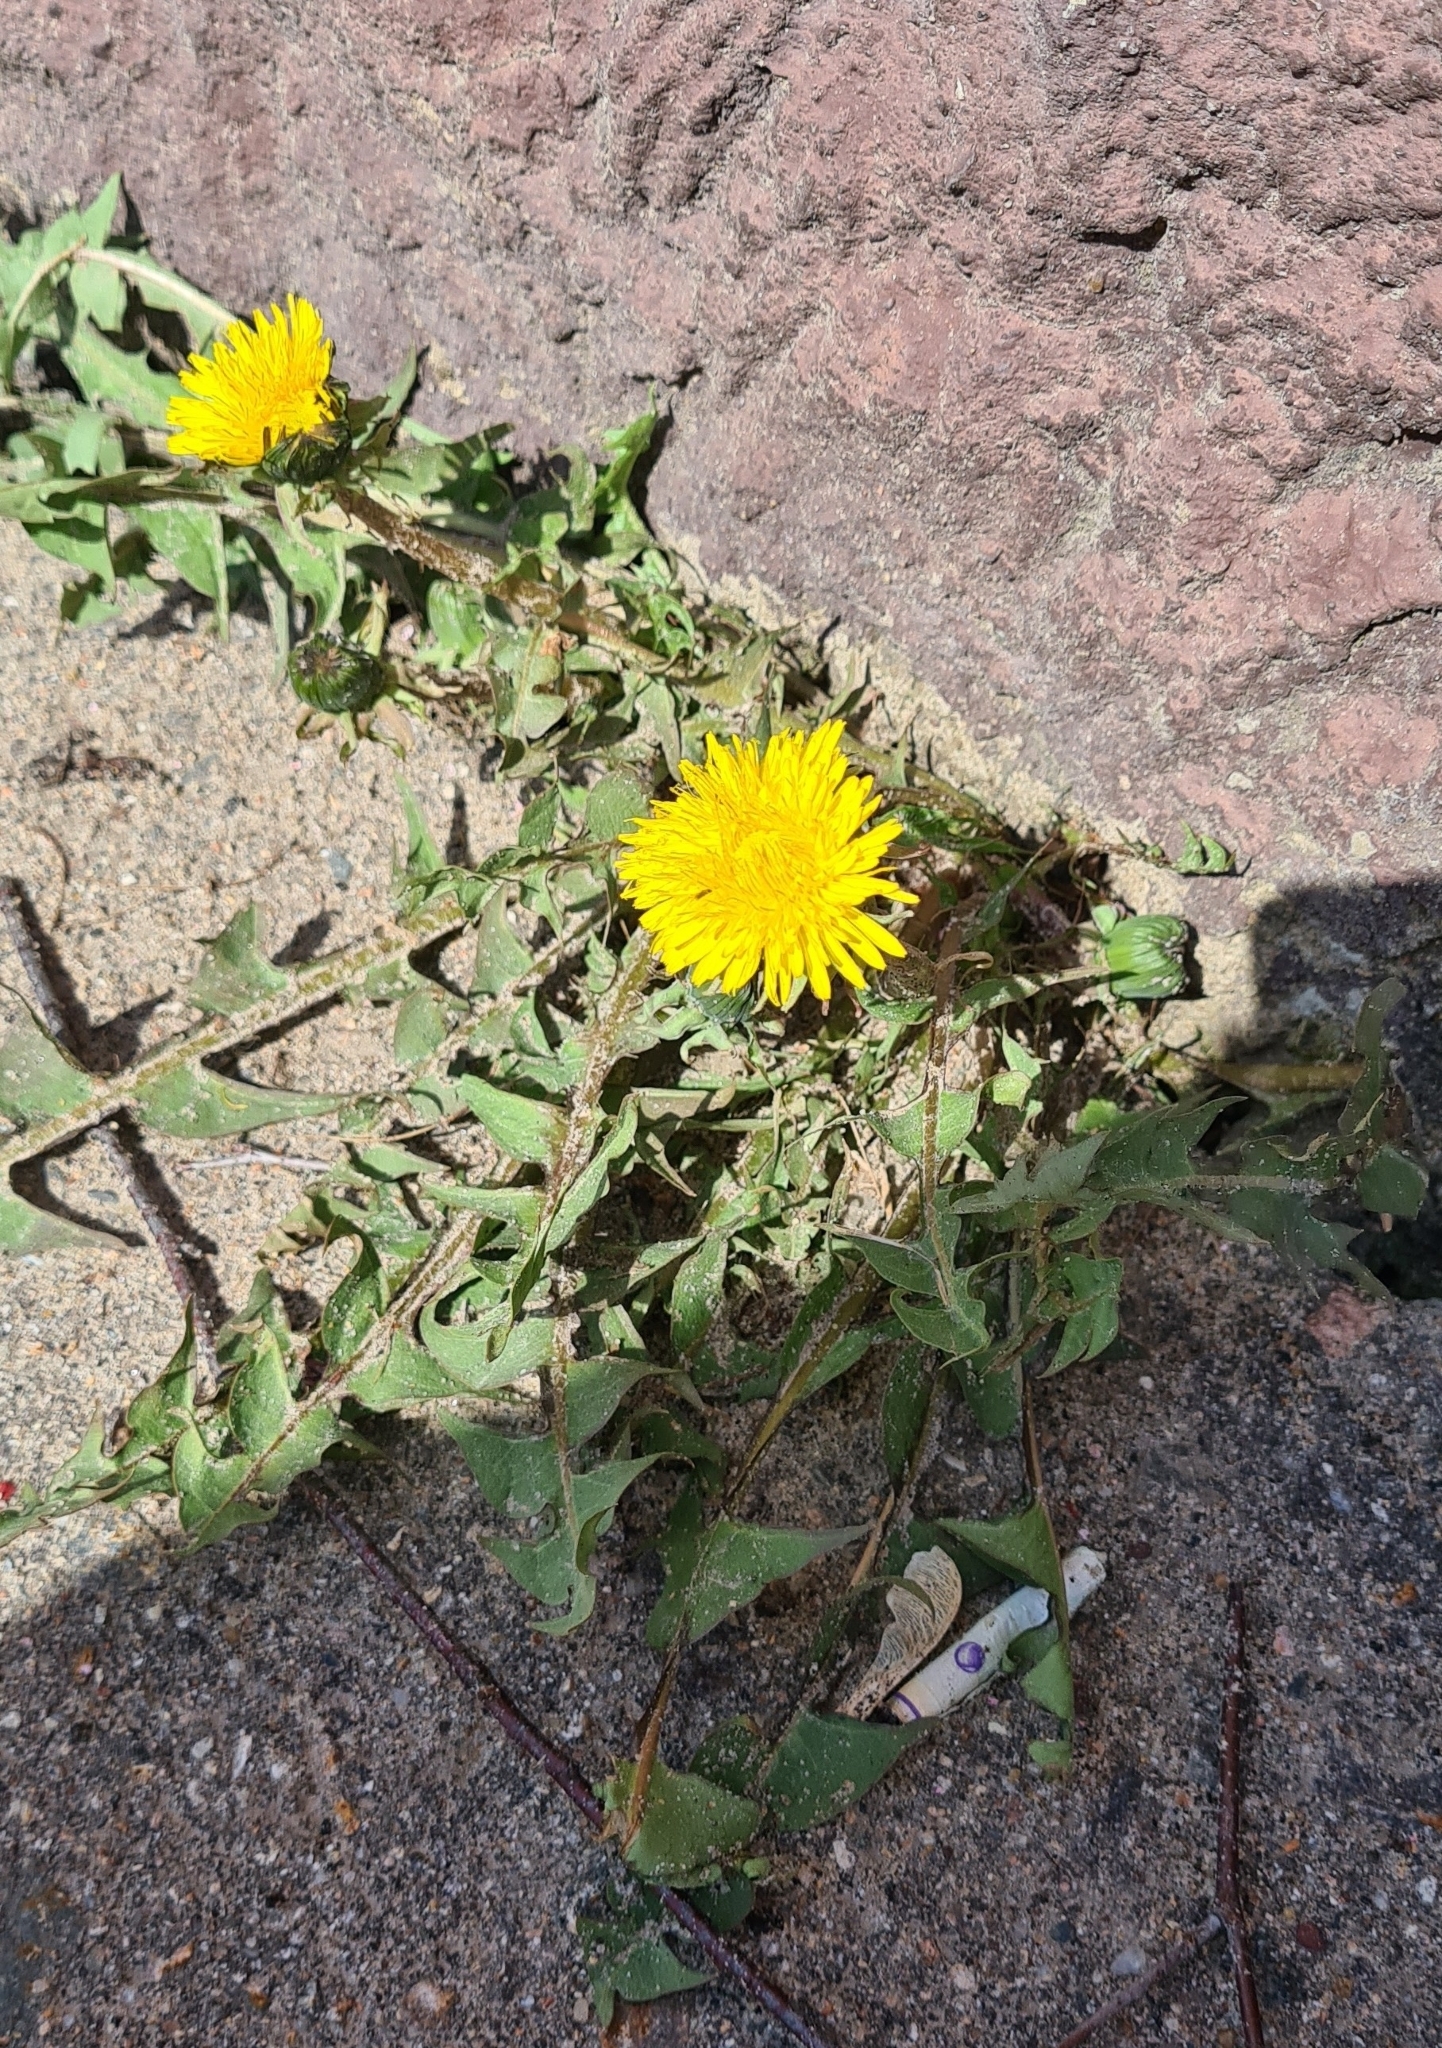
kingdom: Plantae
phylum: Tracheophyta
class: Magnoliopsida
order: Asterales
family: Asteraceae
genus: Taraxacum
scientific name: Taraxacum officinale
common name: Common dandelion
